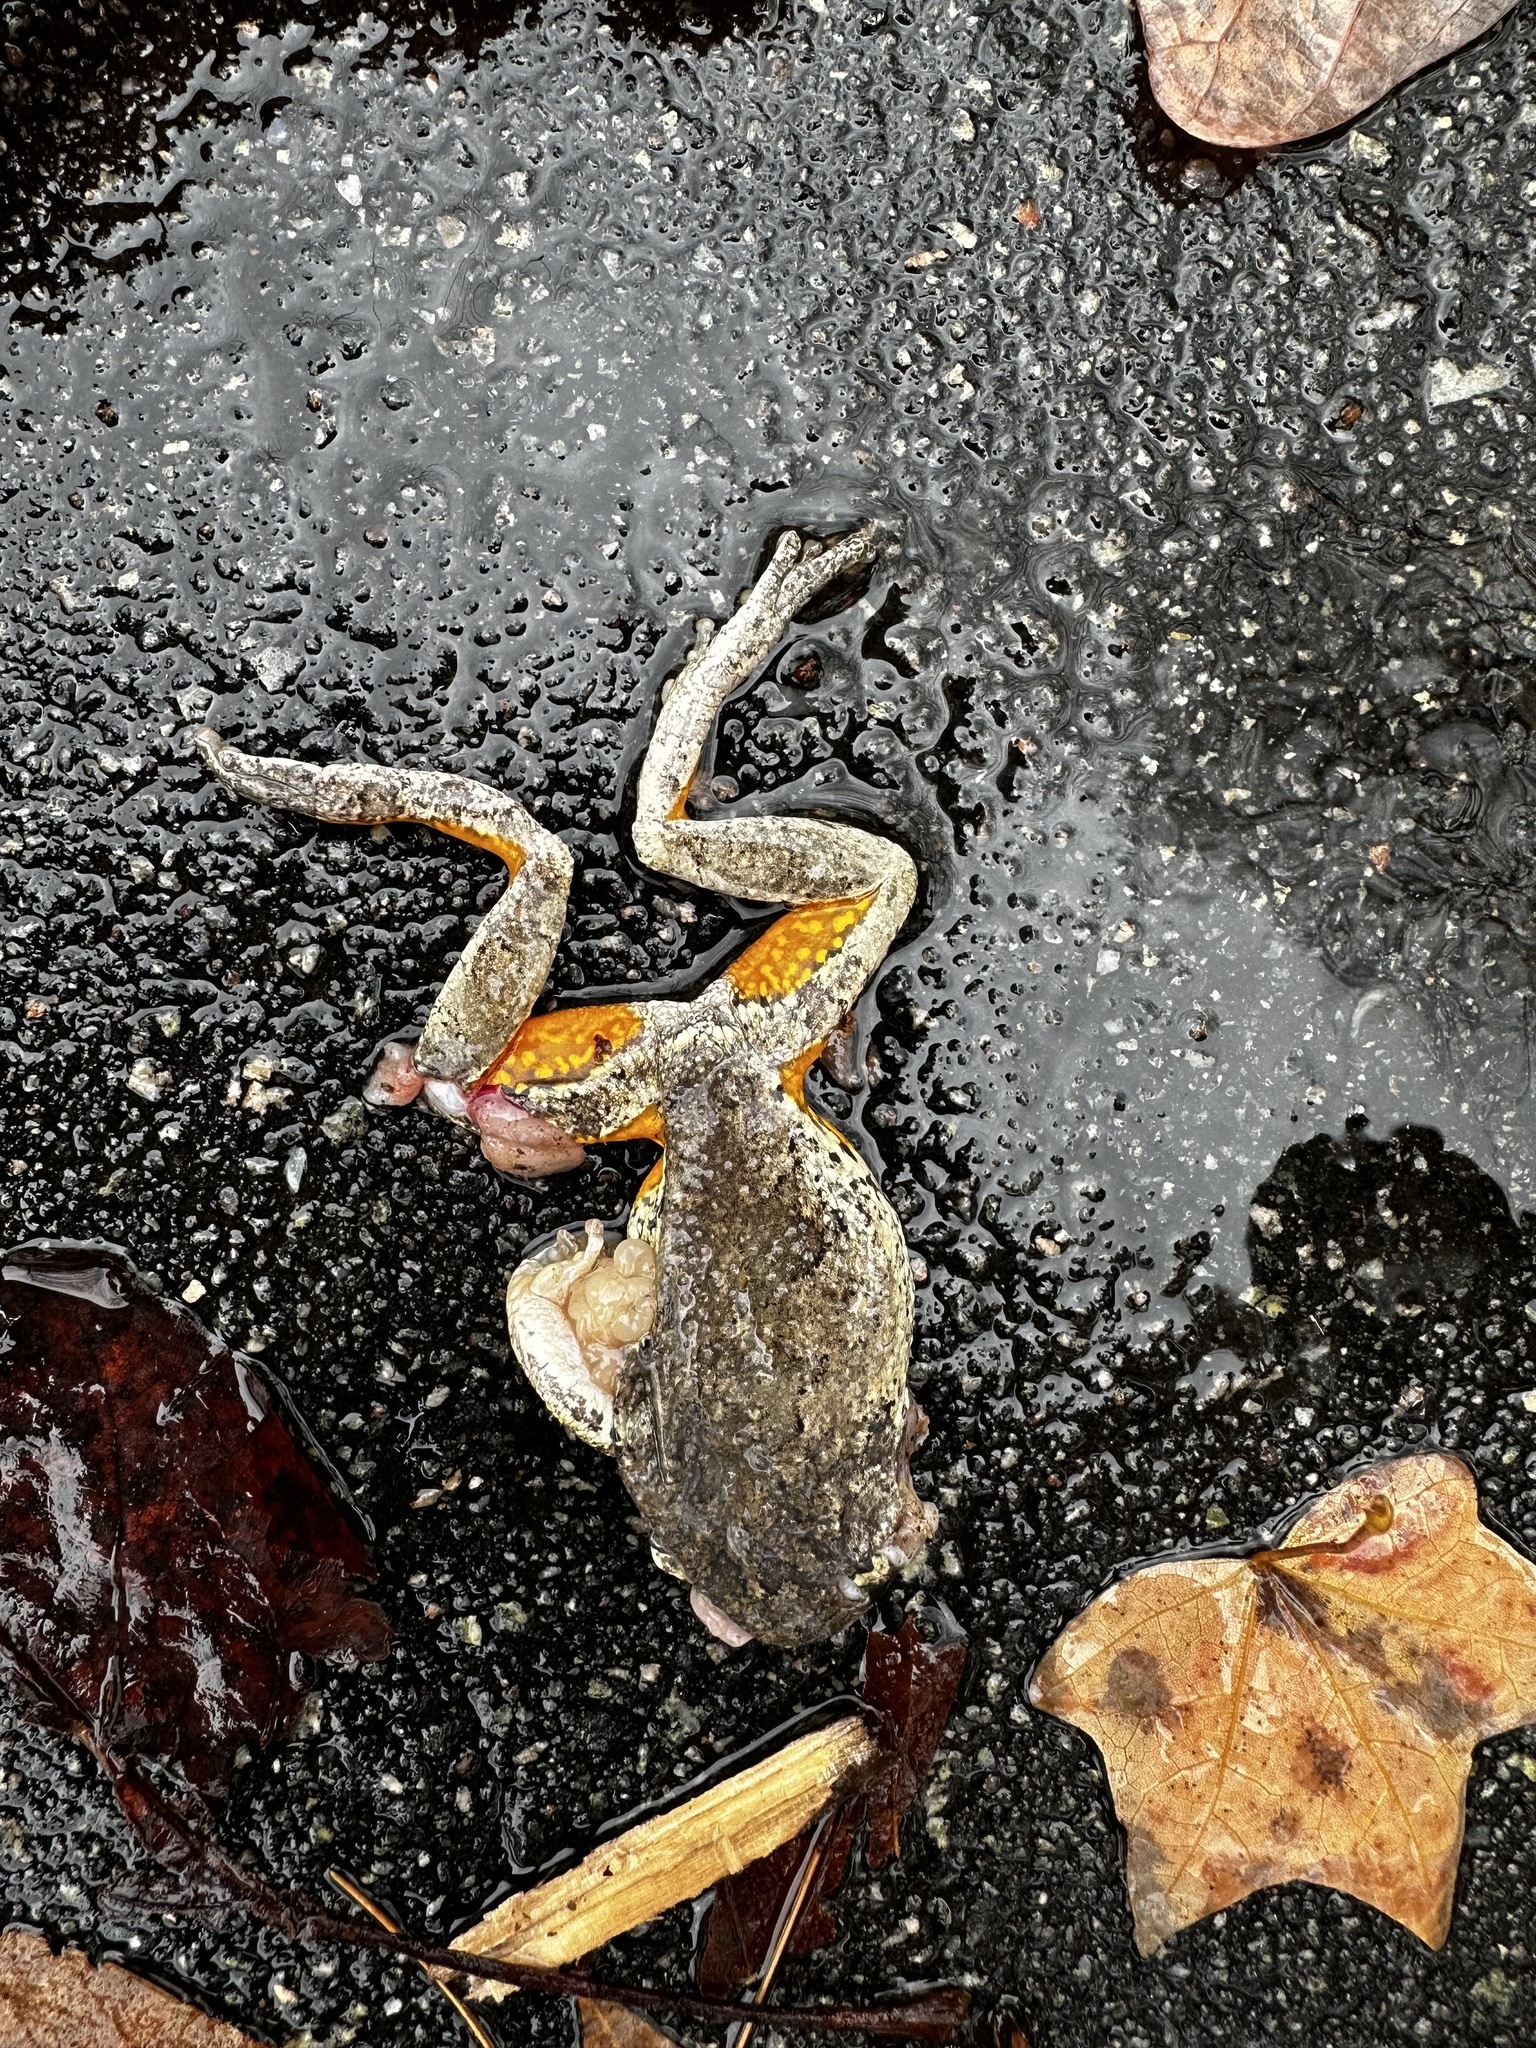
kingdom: Animalia
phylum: Chordata
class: Amphibia
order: Anura
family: Hylidae
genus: Dryophytes
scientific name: Dryophytes chrysoscelis
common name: Cope's gray treefrog
